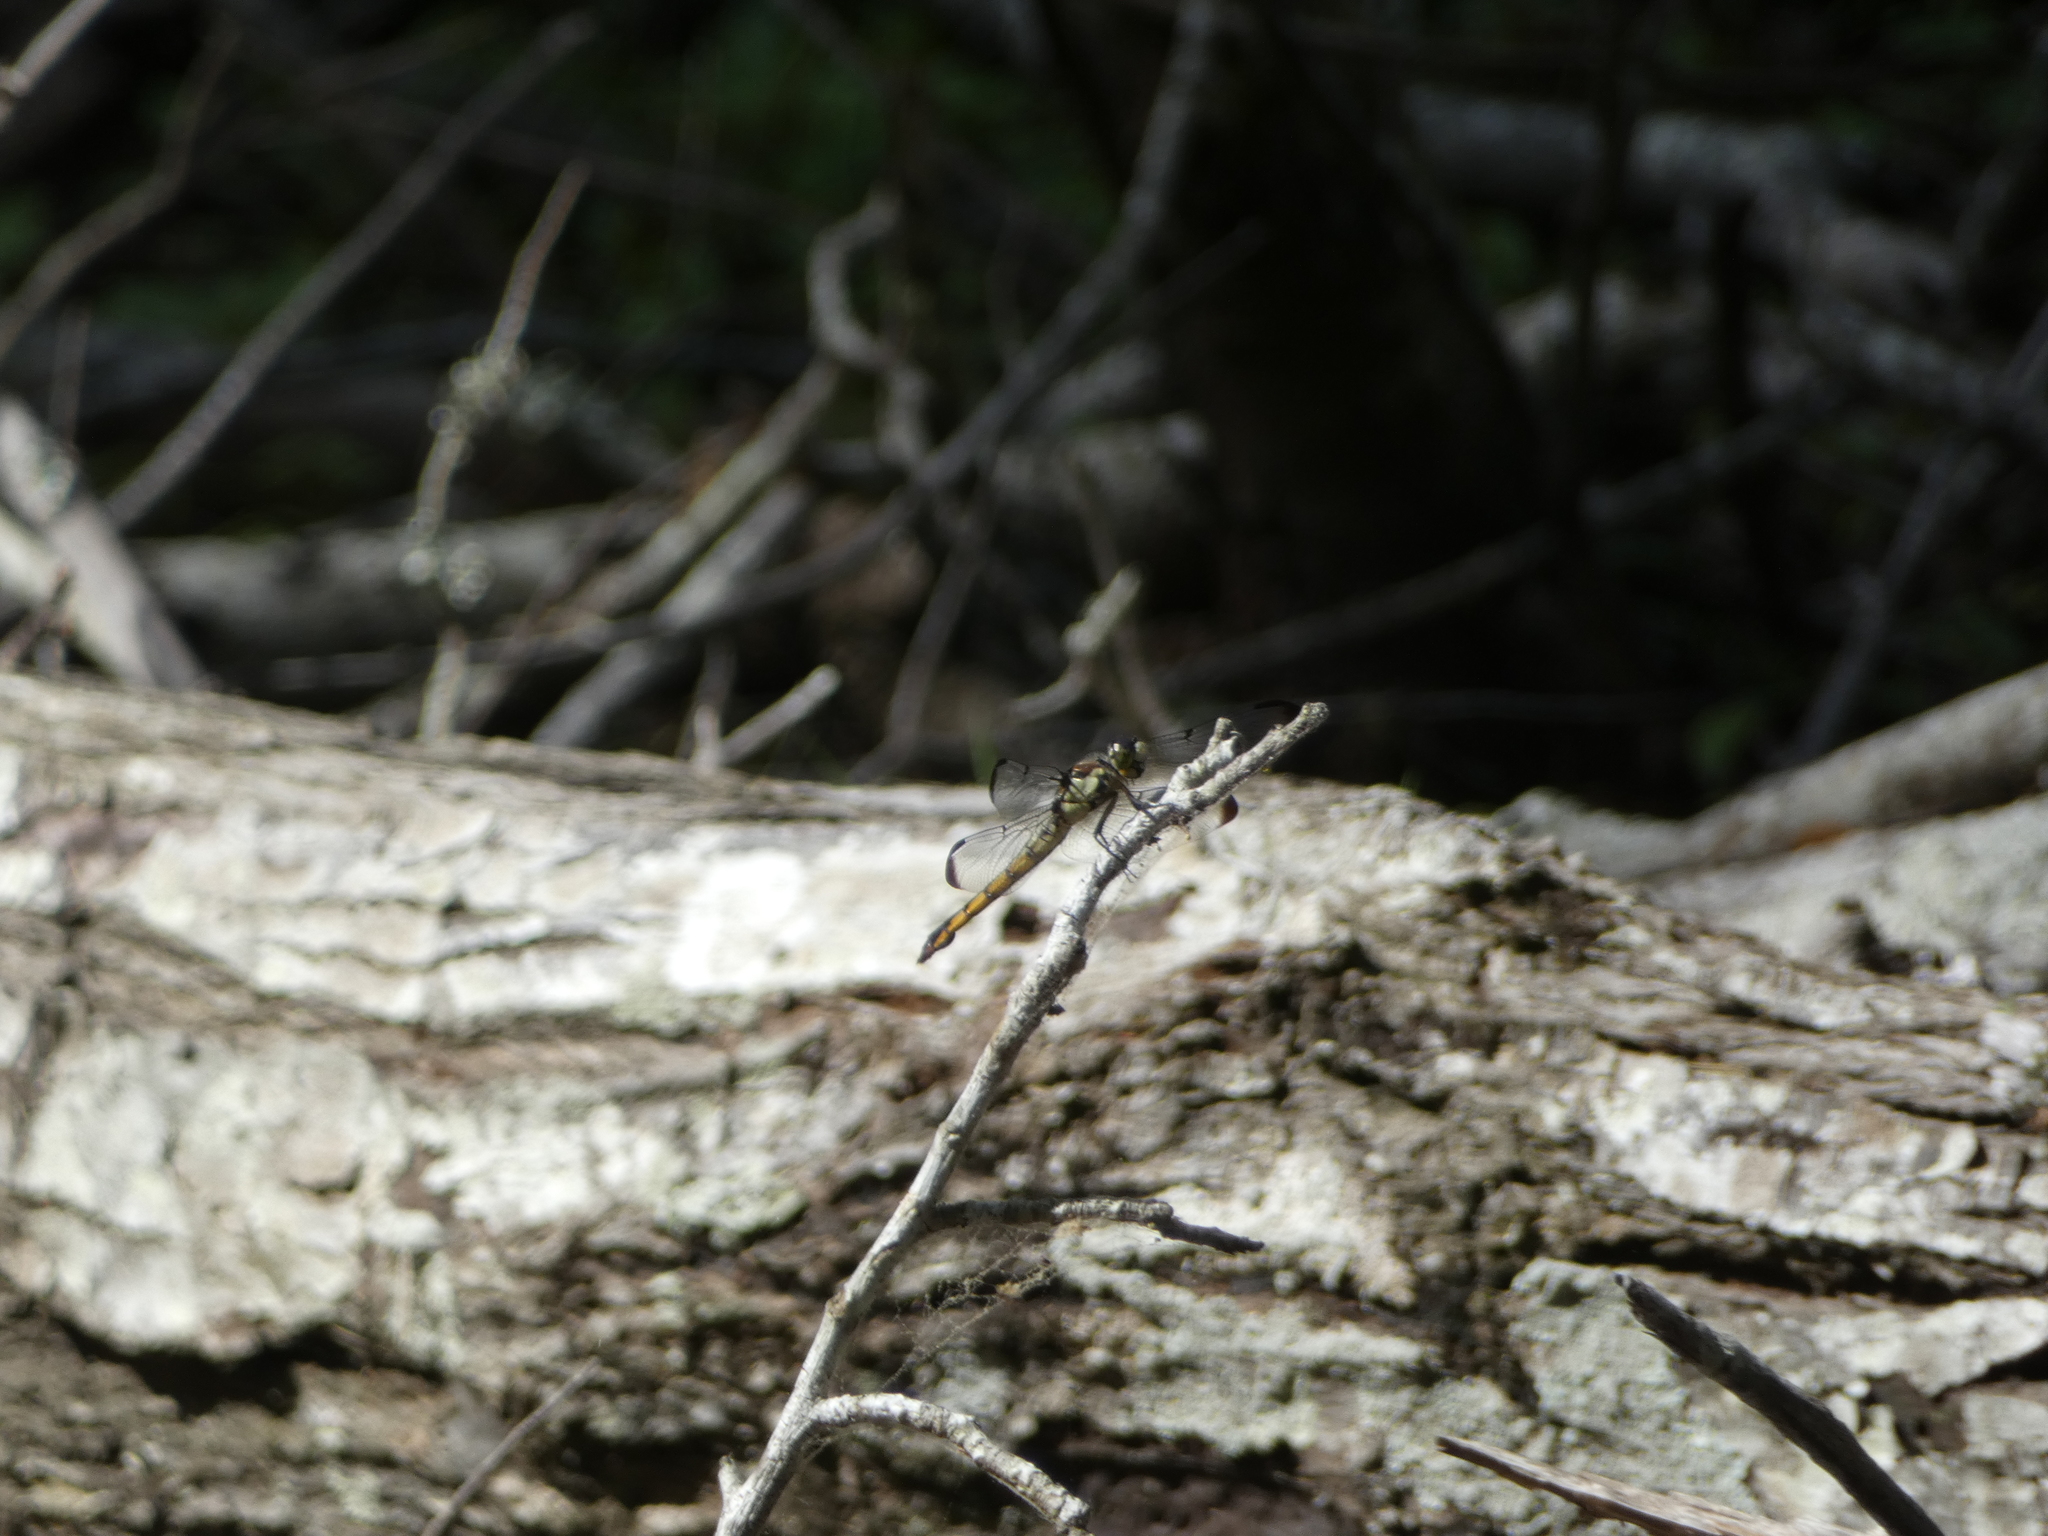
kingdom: Animalia
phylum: Arthropoda
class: Insecta
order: Odonata
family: Libellulidae
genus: Libellula
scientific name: Libellula vibrans
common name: Great blue skimmer
